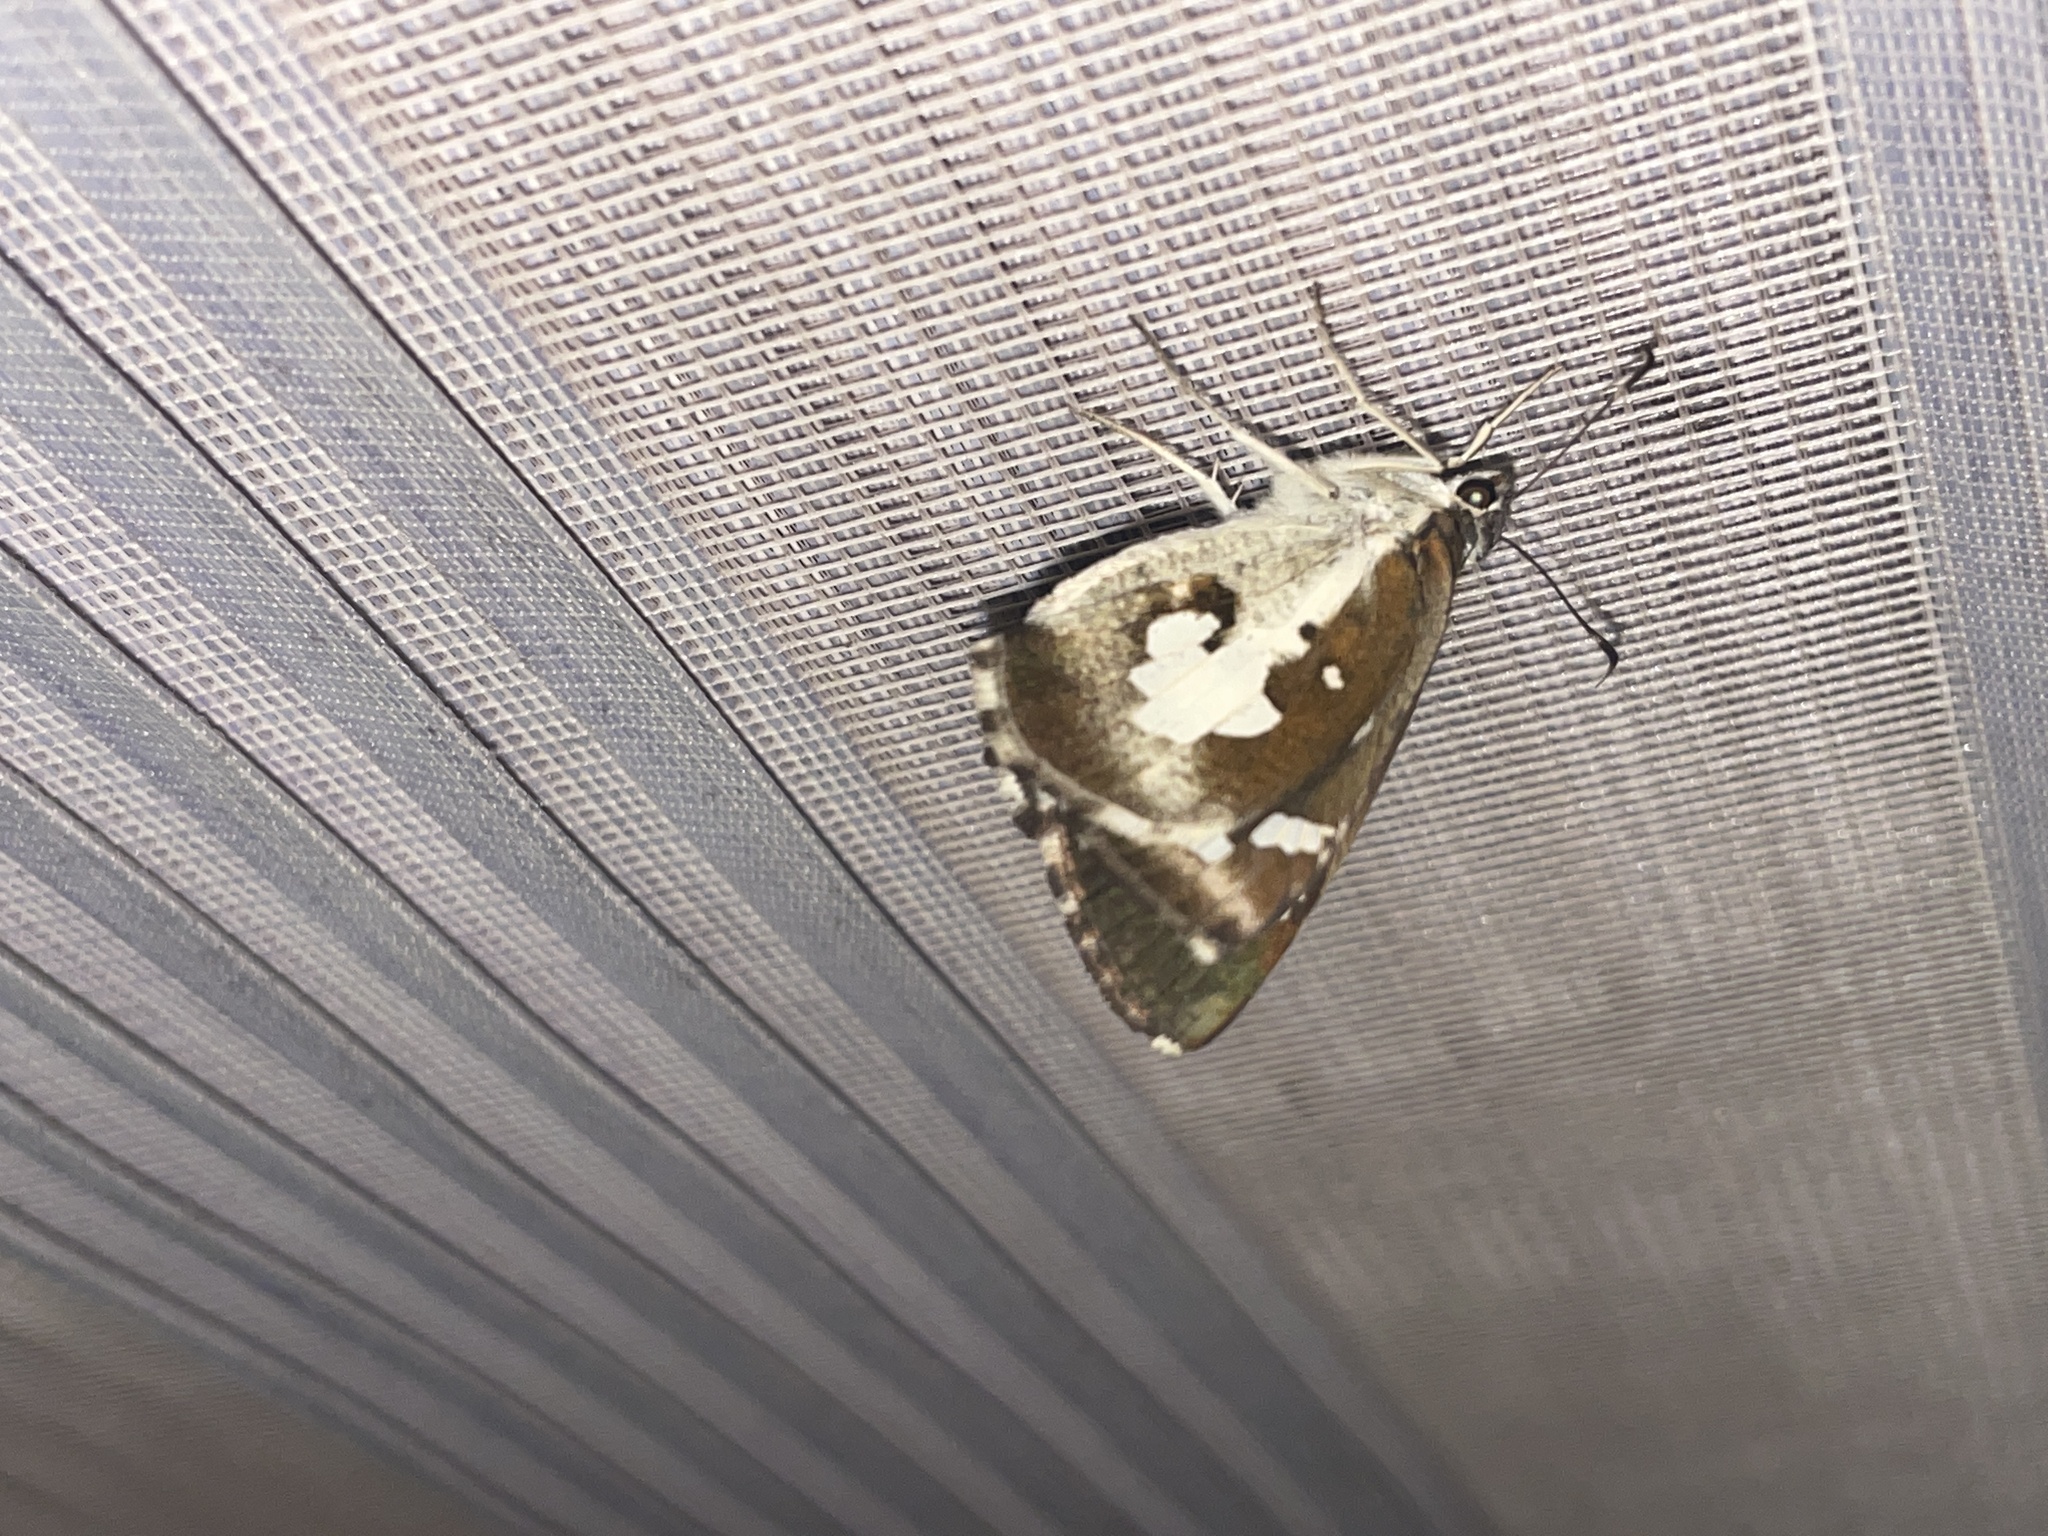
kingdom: Animalia
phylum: Arthropoda
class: Insecta
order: Lepidoptera
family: Hesperiidae
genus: Udaspes
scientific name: Udaspes folus
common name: Grass demon
